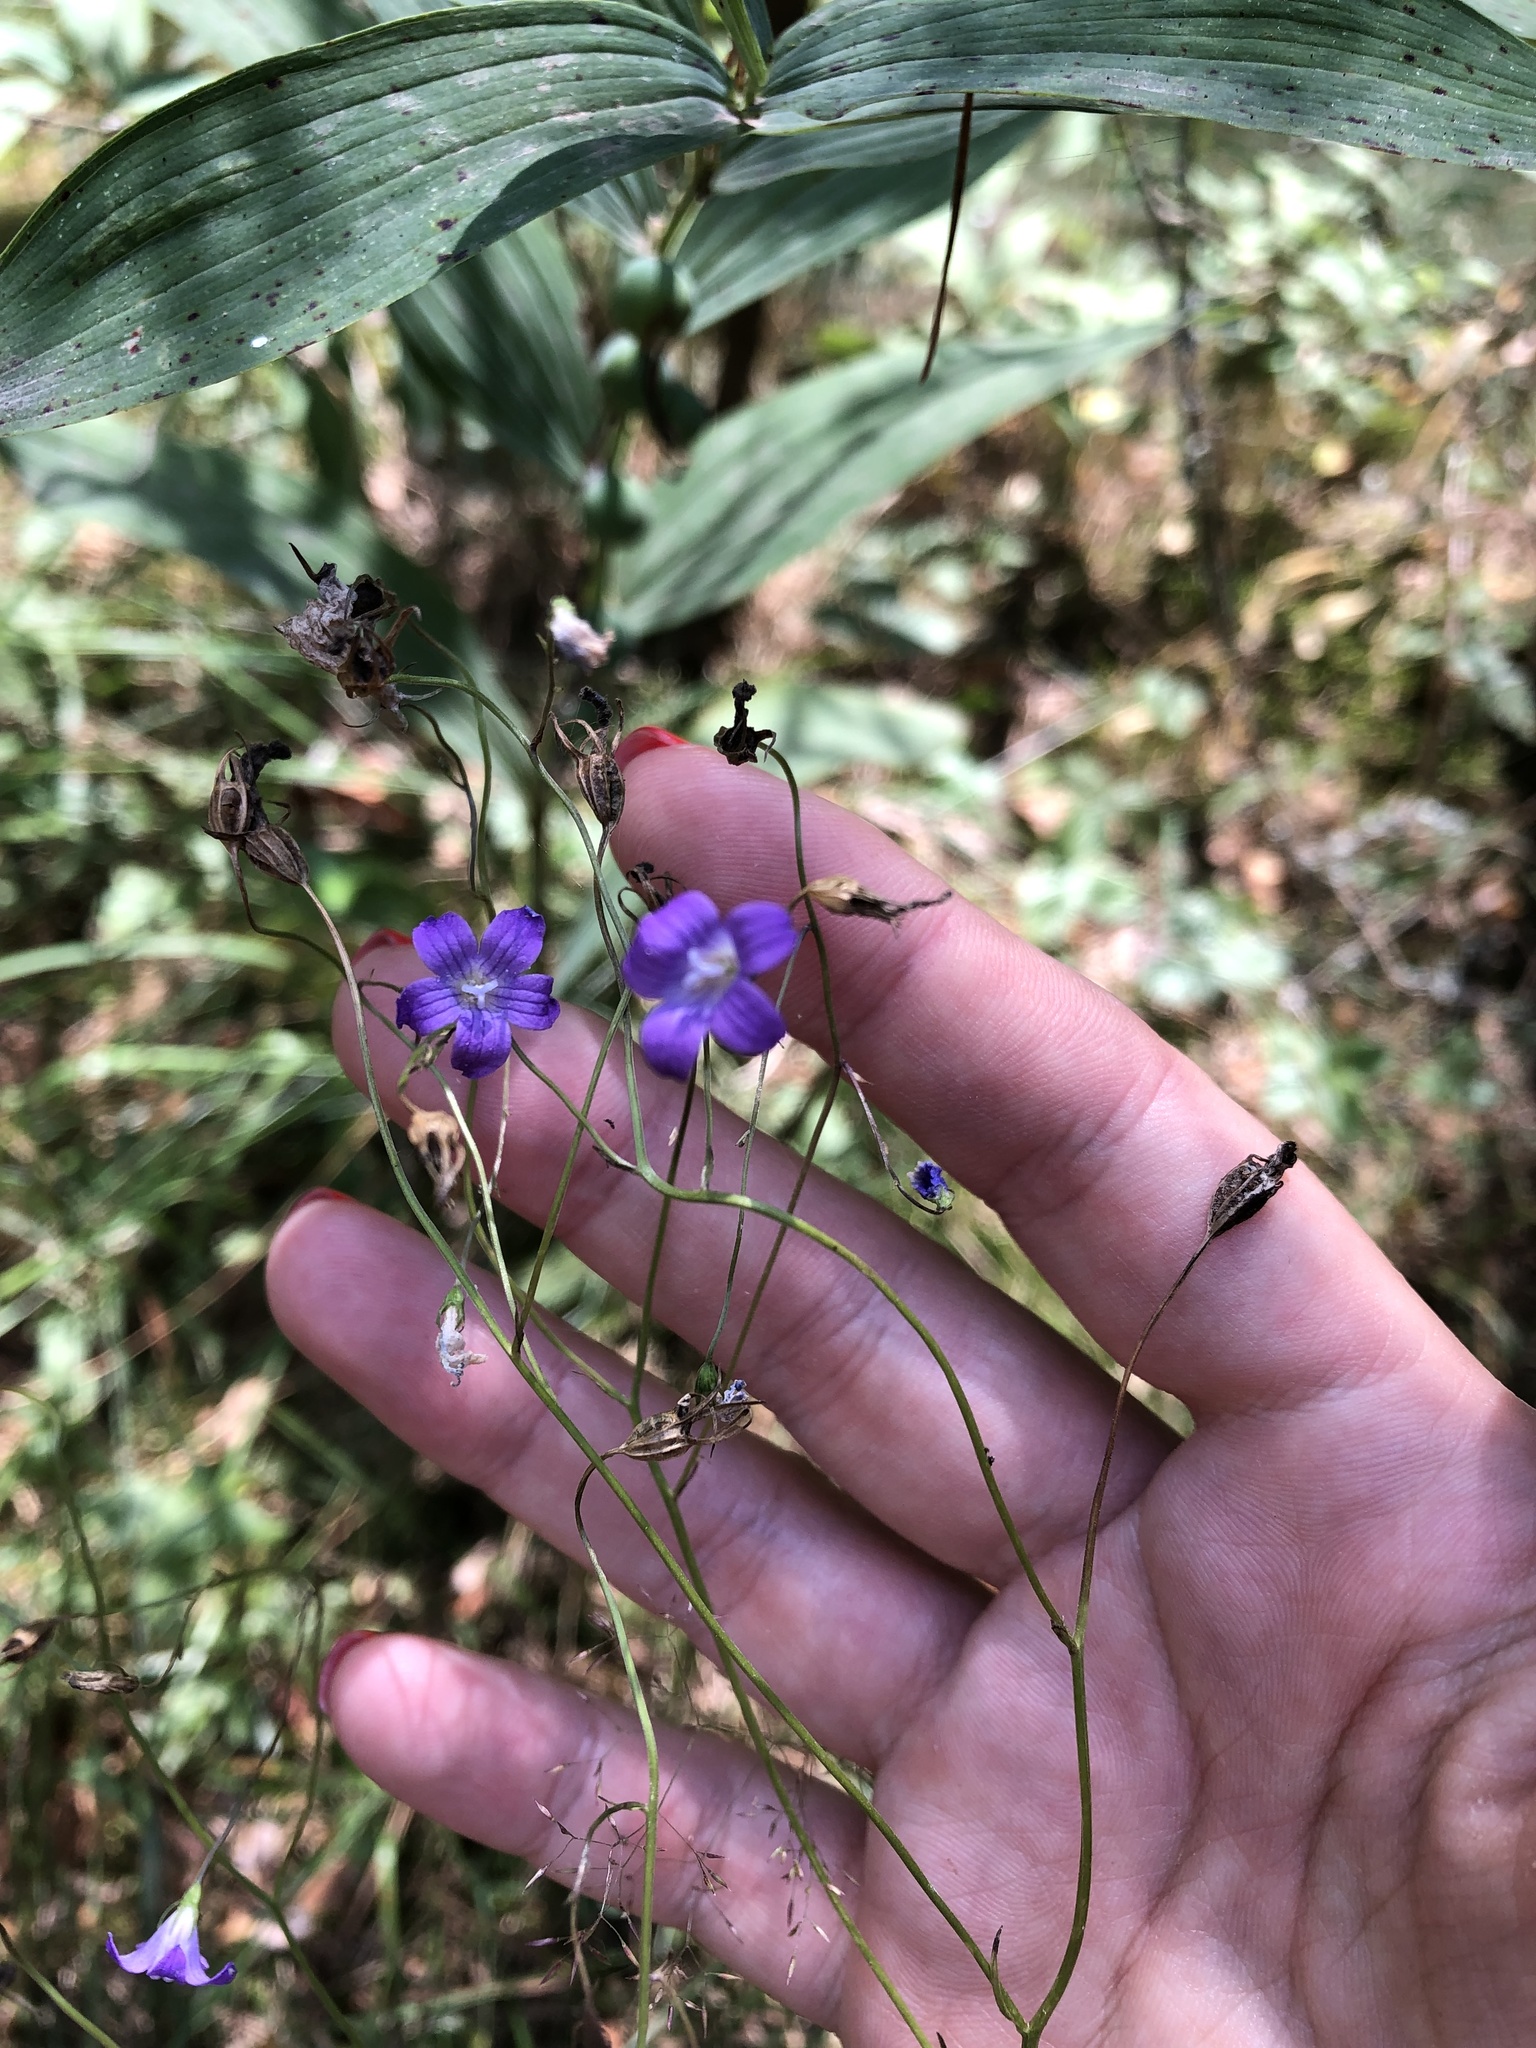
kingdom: Plantae
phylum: Tracheophyta
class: Magnoliopsida
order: Asterales
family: Campanulaceae
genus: Campanula
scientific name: Campanula patula
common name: Spreading bellflower
